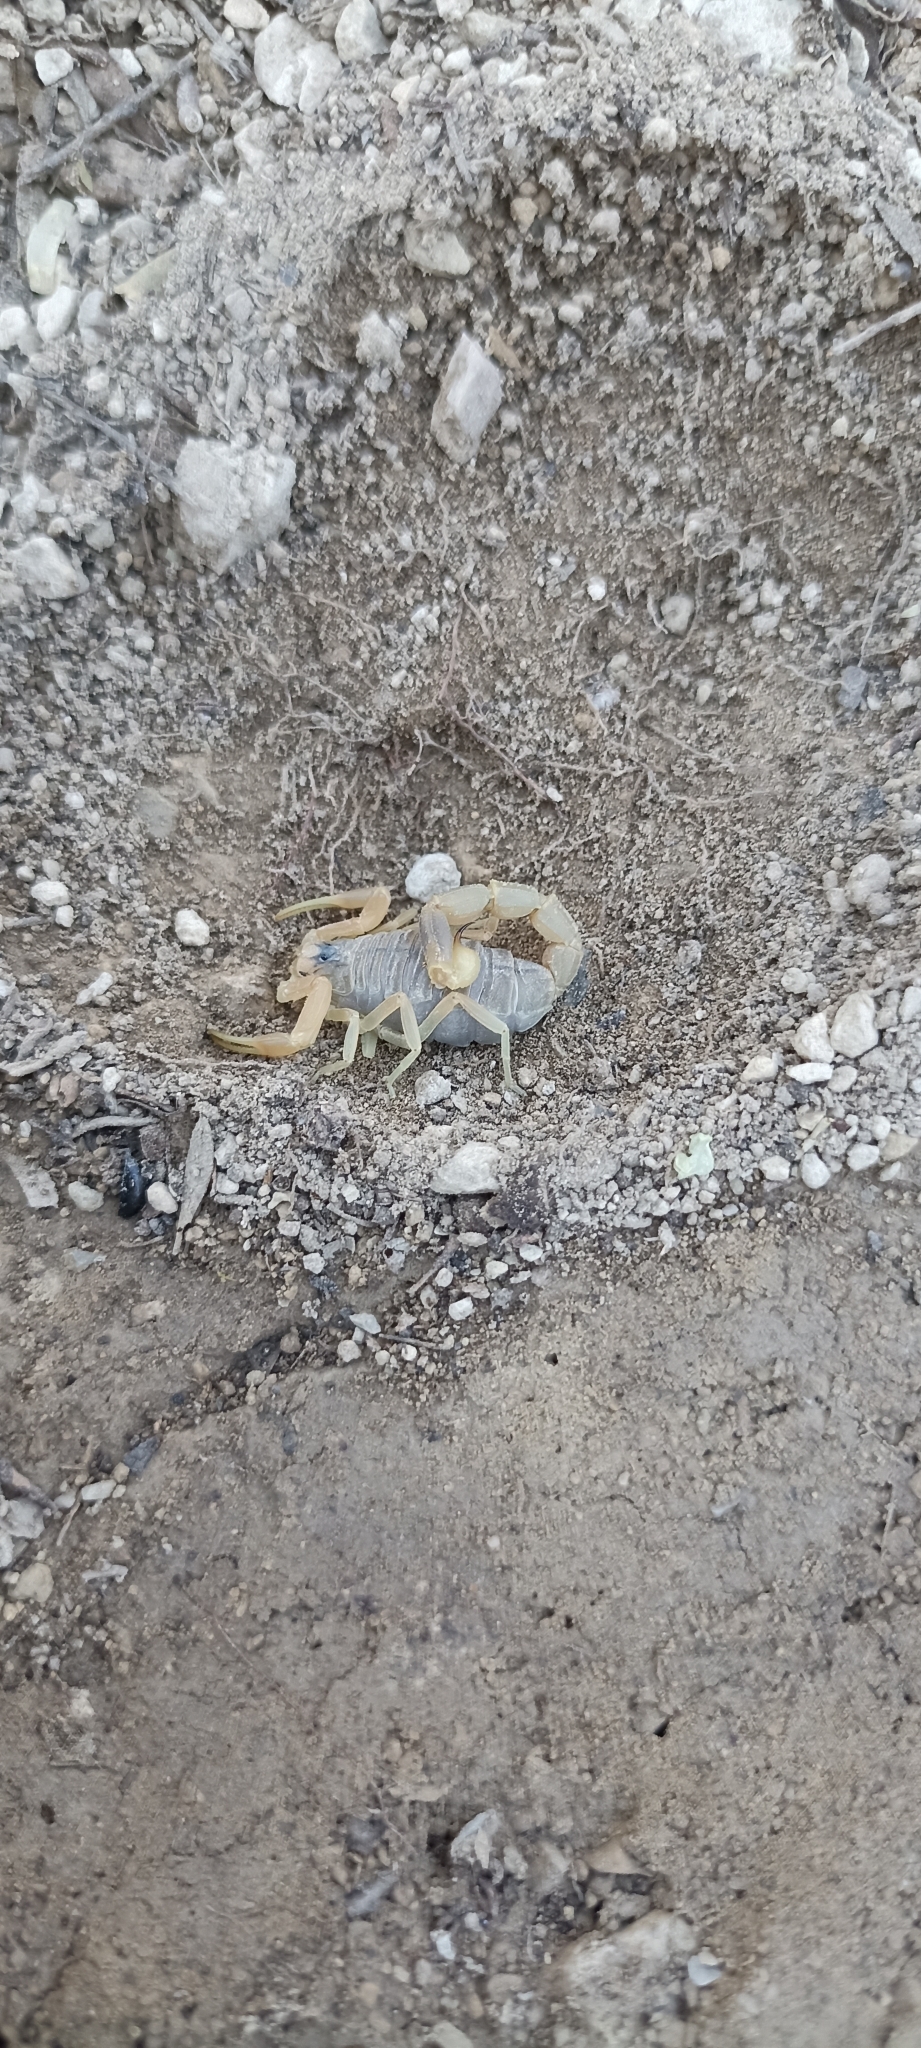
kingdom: Animalia
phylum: Arthropoda
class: Arachnida
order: Scorpiones
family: Buthidae
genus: Buthus
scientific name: Buthus occitanus
